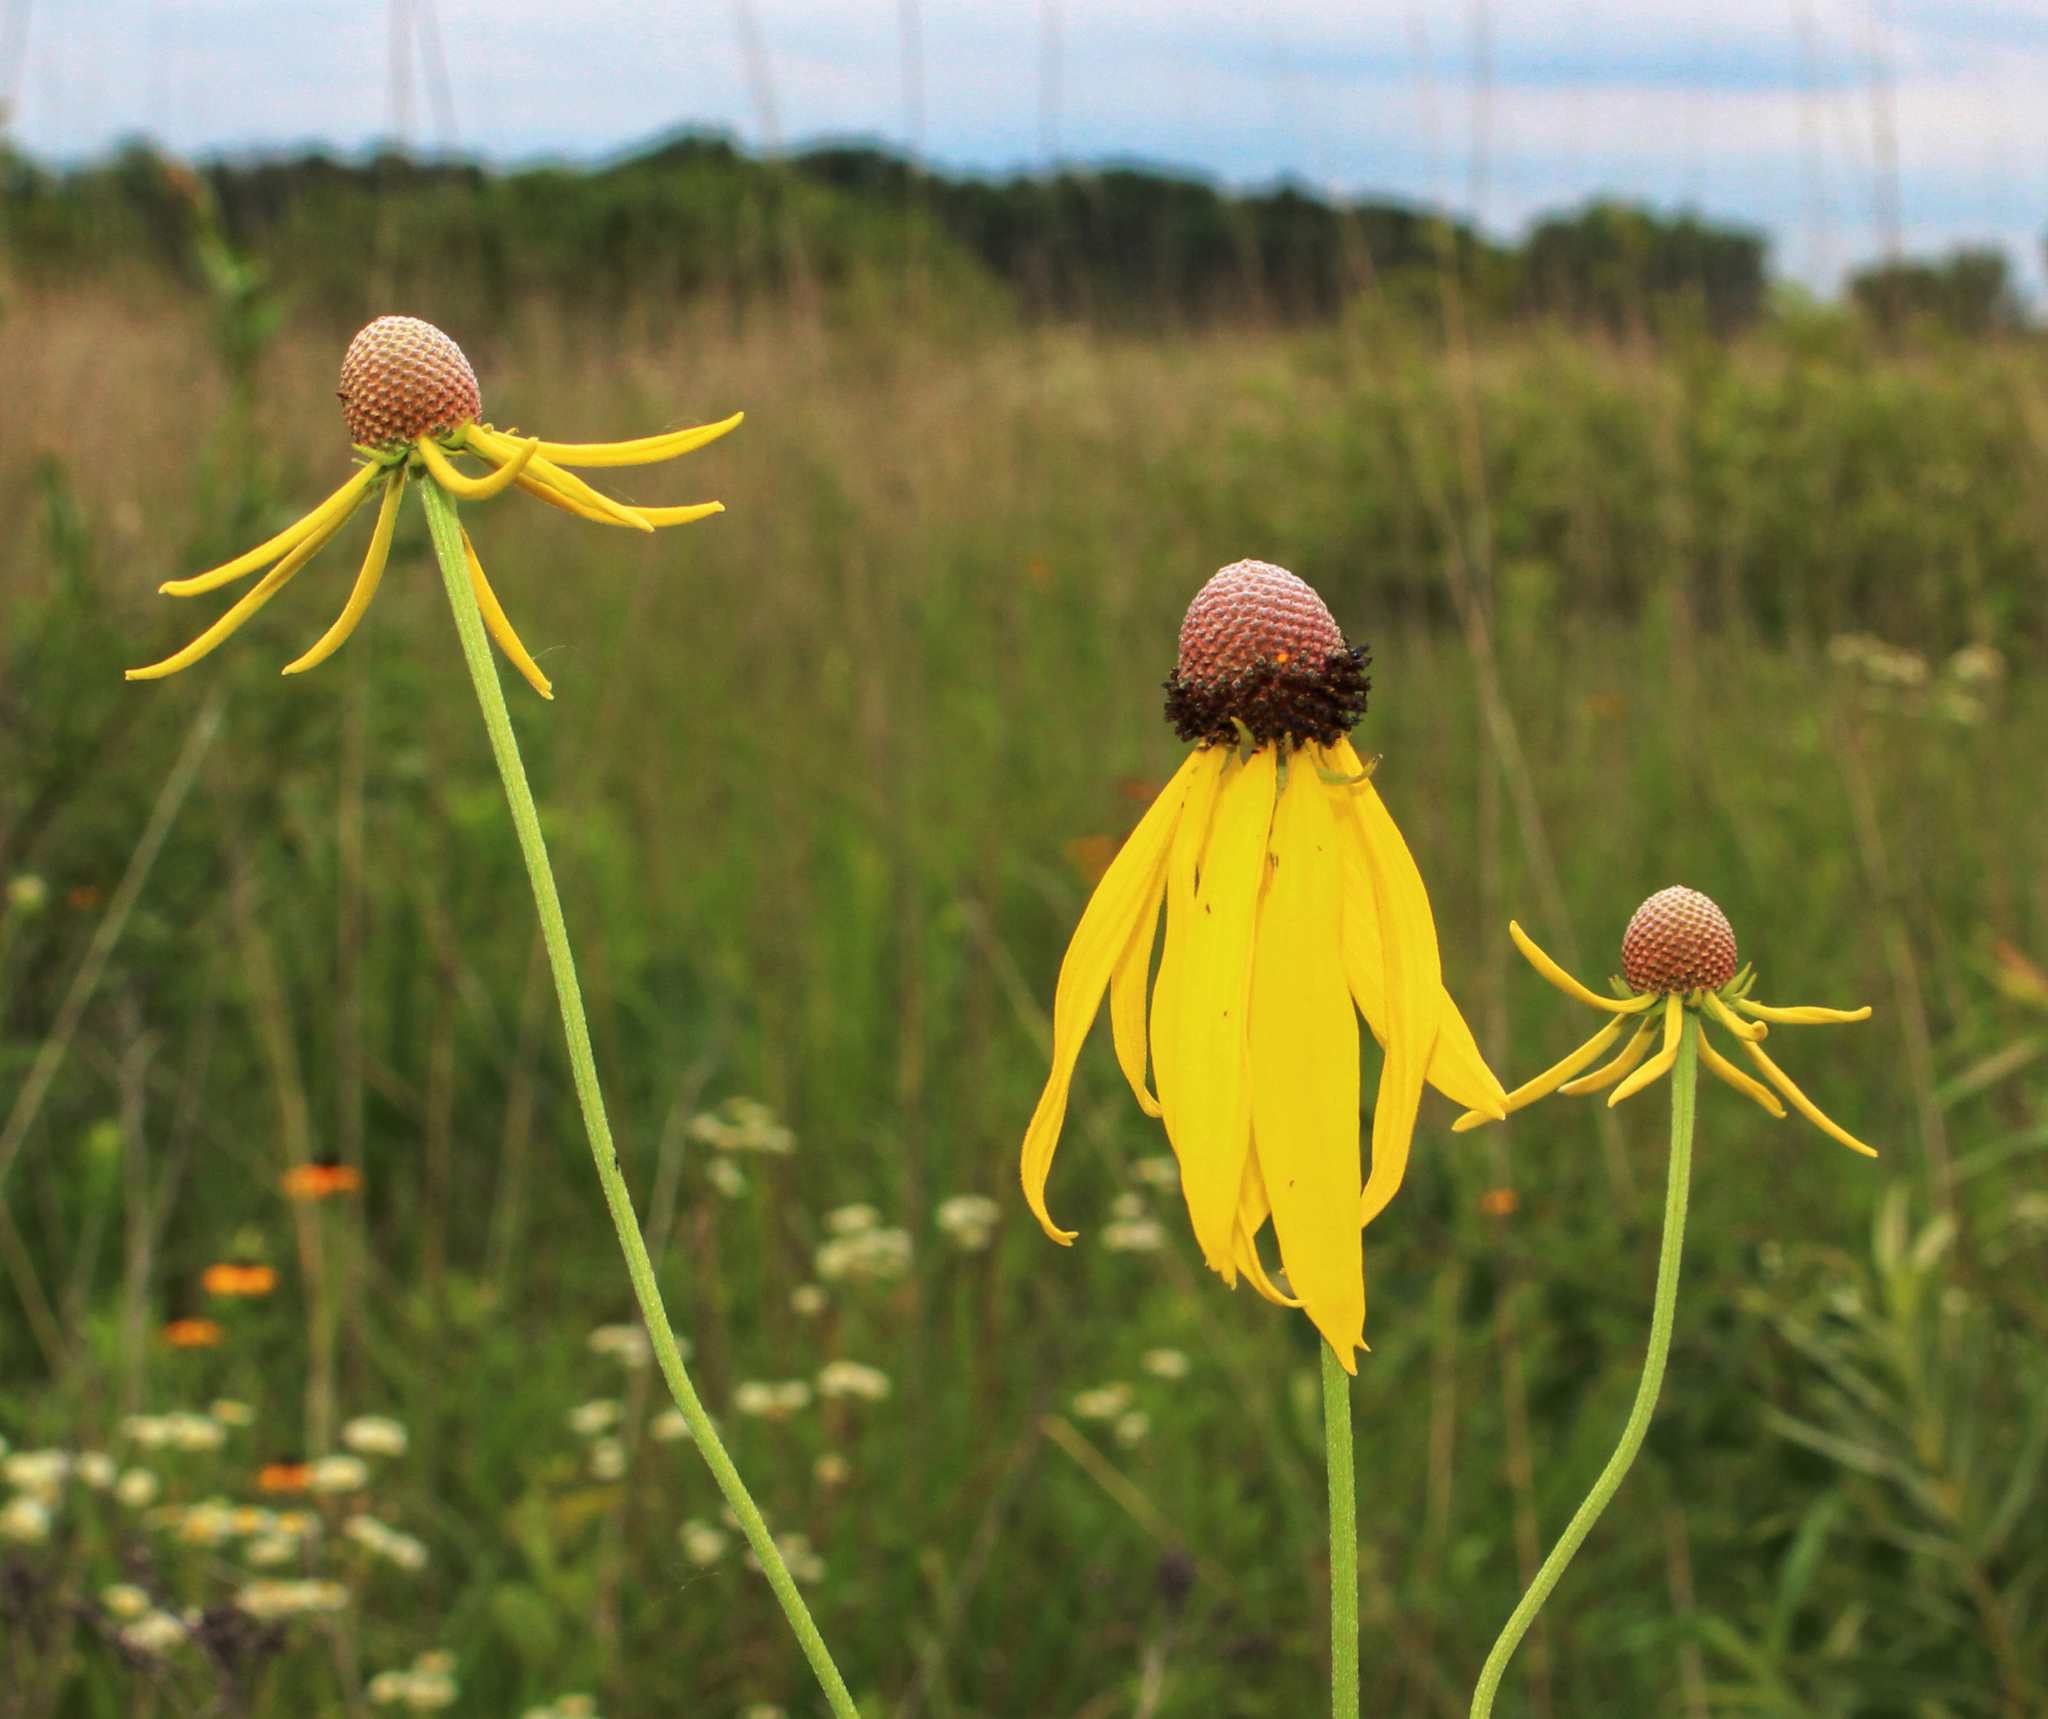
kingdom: Plantae
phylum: Tracheophyta
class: Magnoliopsida
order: Asterales
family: Asteraceae
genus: Ratibida
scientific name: Ratibida pinnata
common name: Drooping prairie-coneflower
